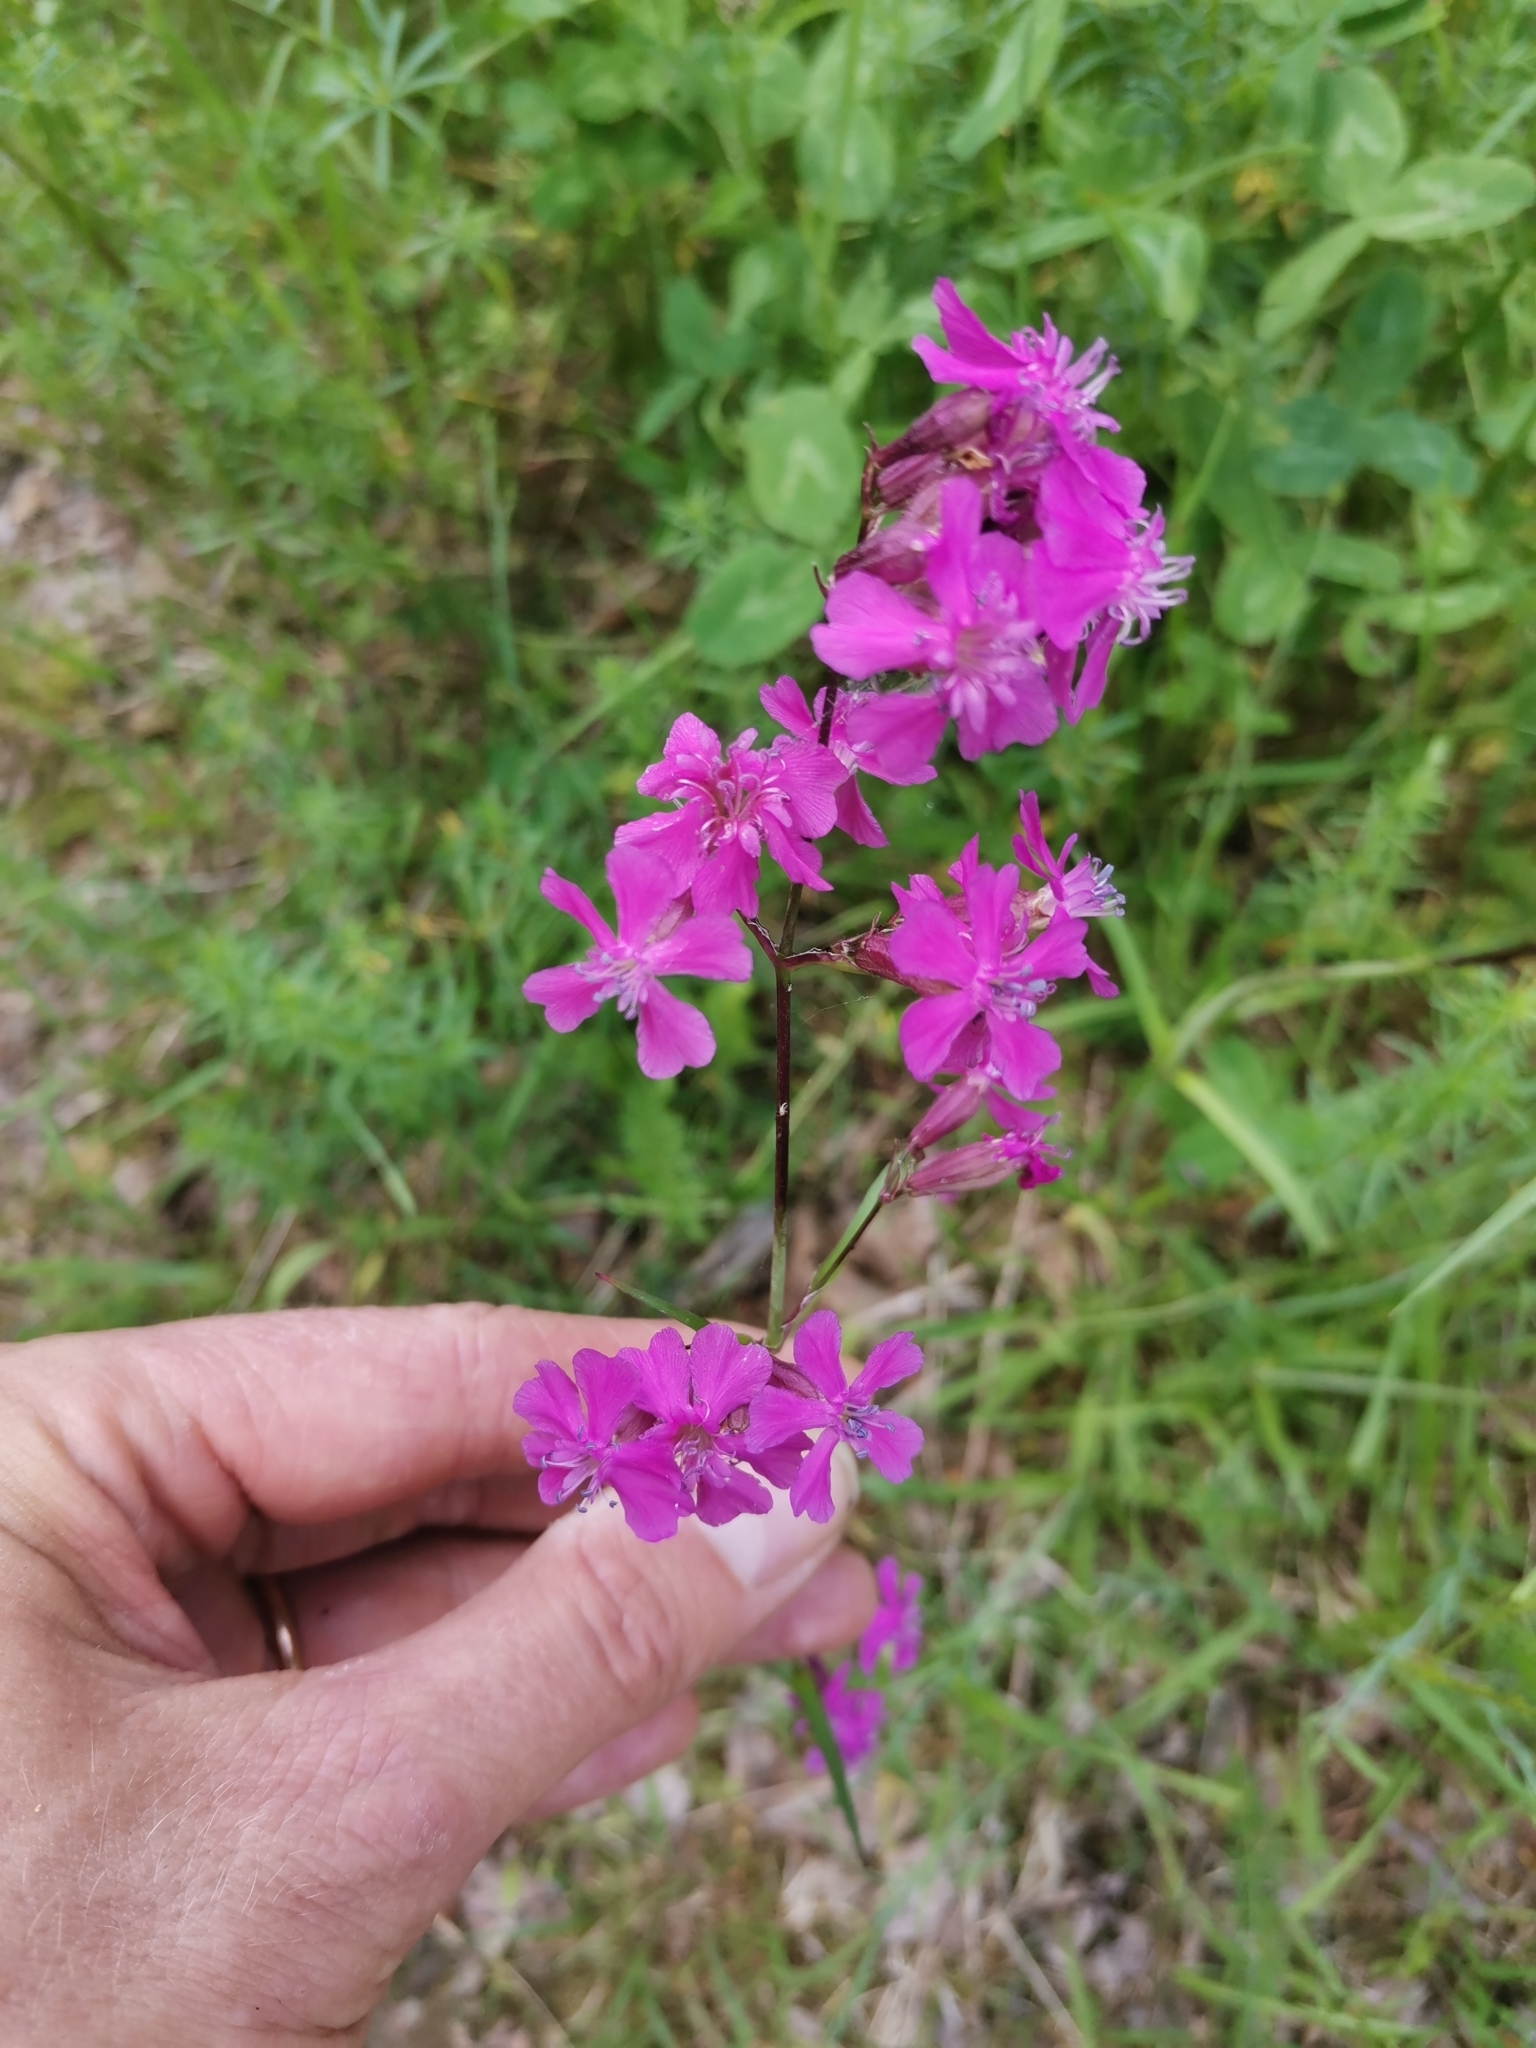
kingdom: Plantae
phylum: Tracheophyta
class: Magnoliopsida
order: Caryophyllales
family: Caryophyllaceae
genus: Viscaria
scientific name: Viscaria vulgaris
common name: Clammy campion
